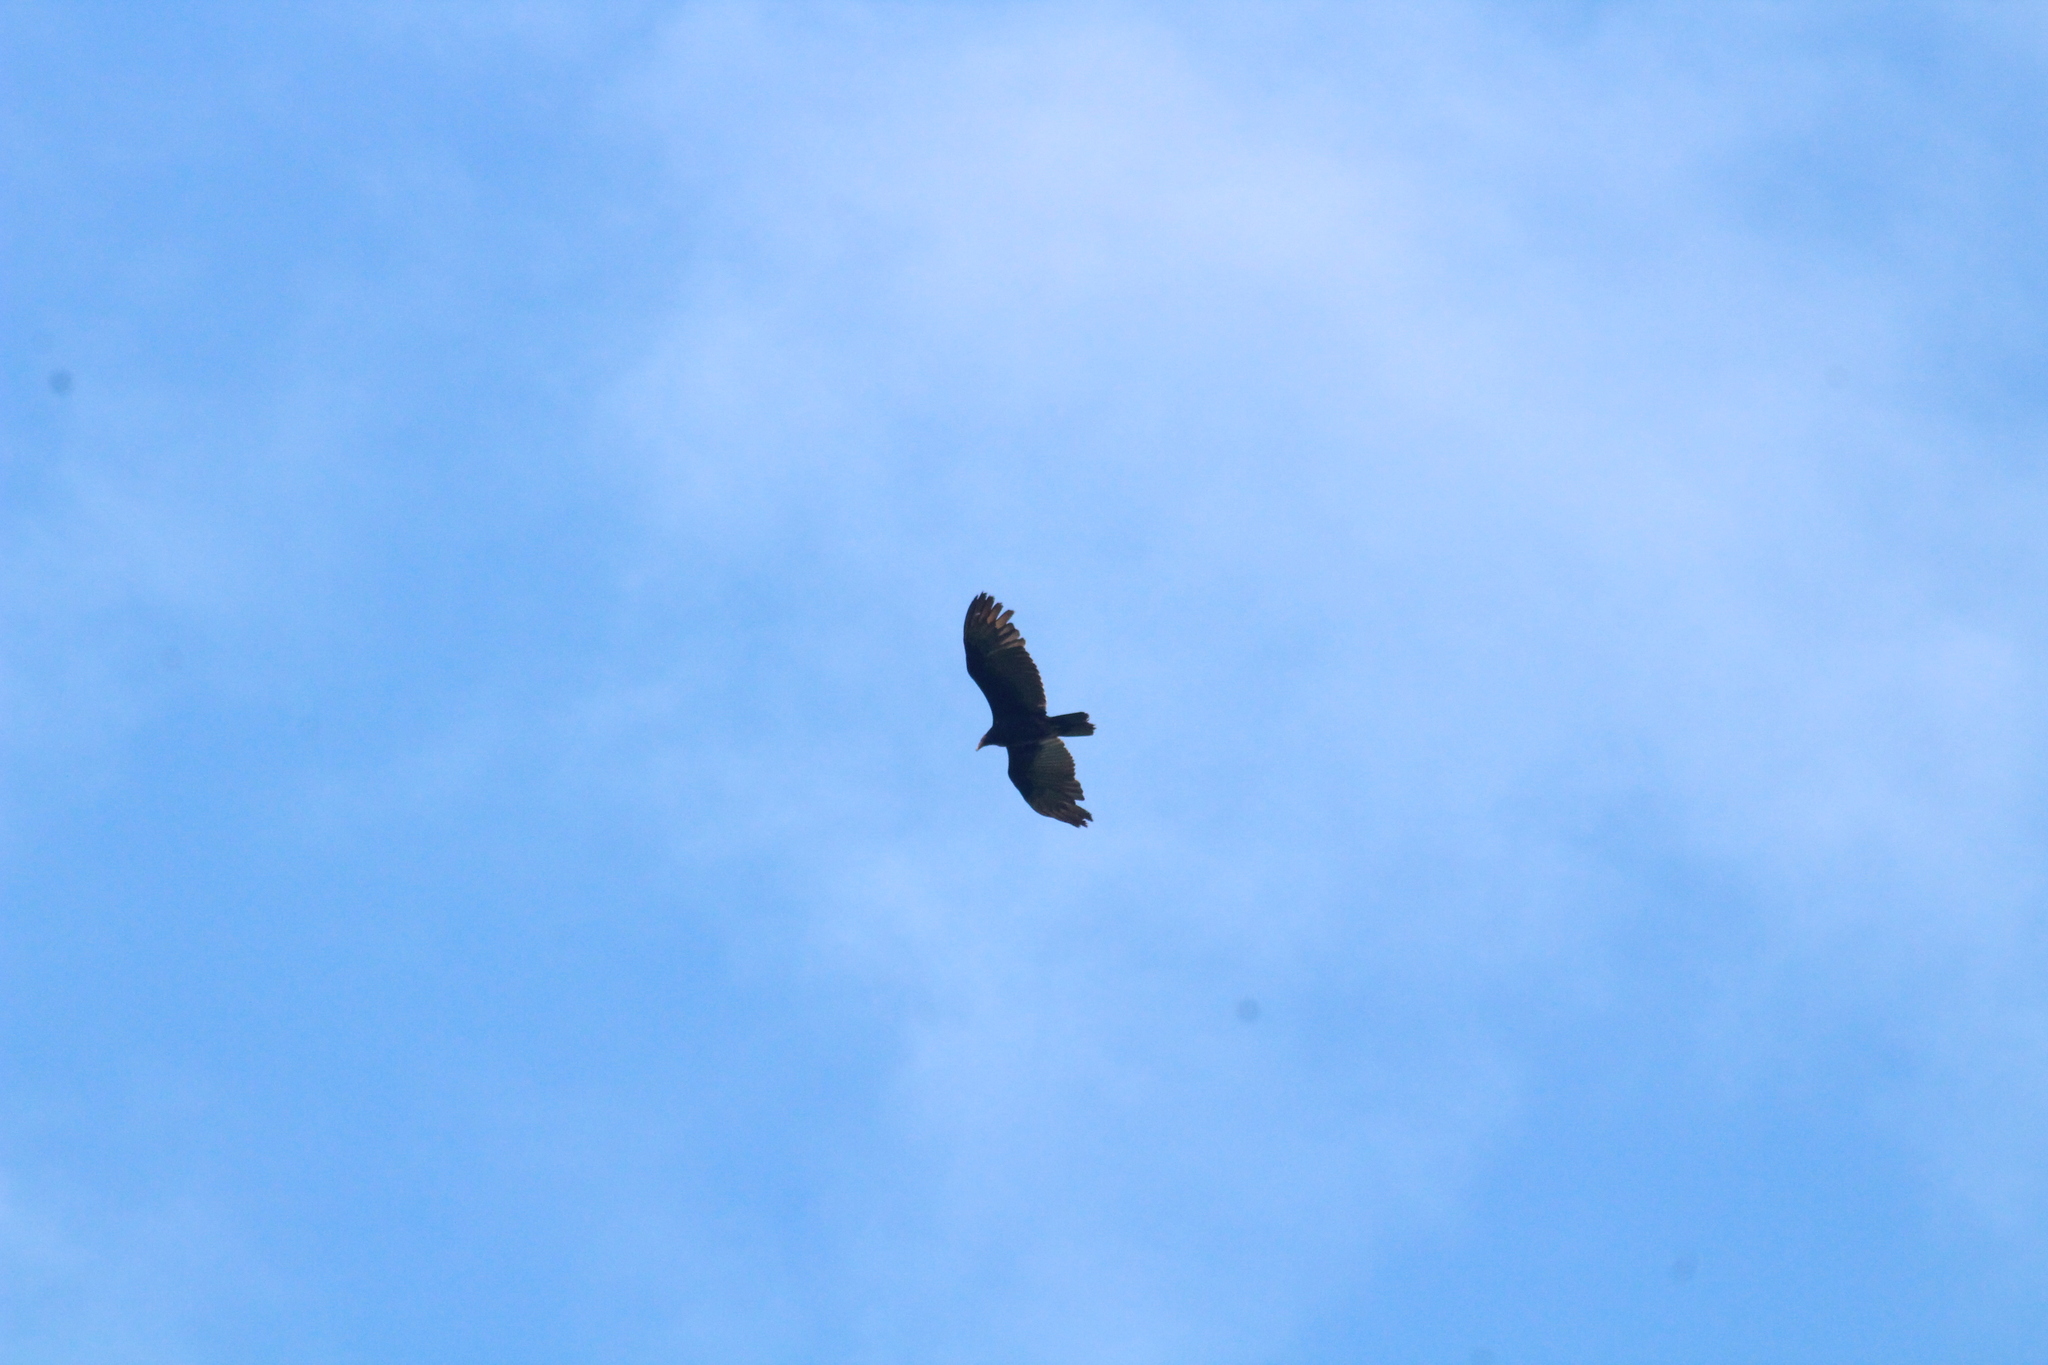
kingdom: Animalia
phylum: Chordata
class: Aves
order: Accipitriformes
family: Cathartidae
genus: Cathartes
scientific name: Cathartes aura
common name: Turkey vulture
